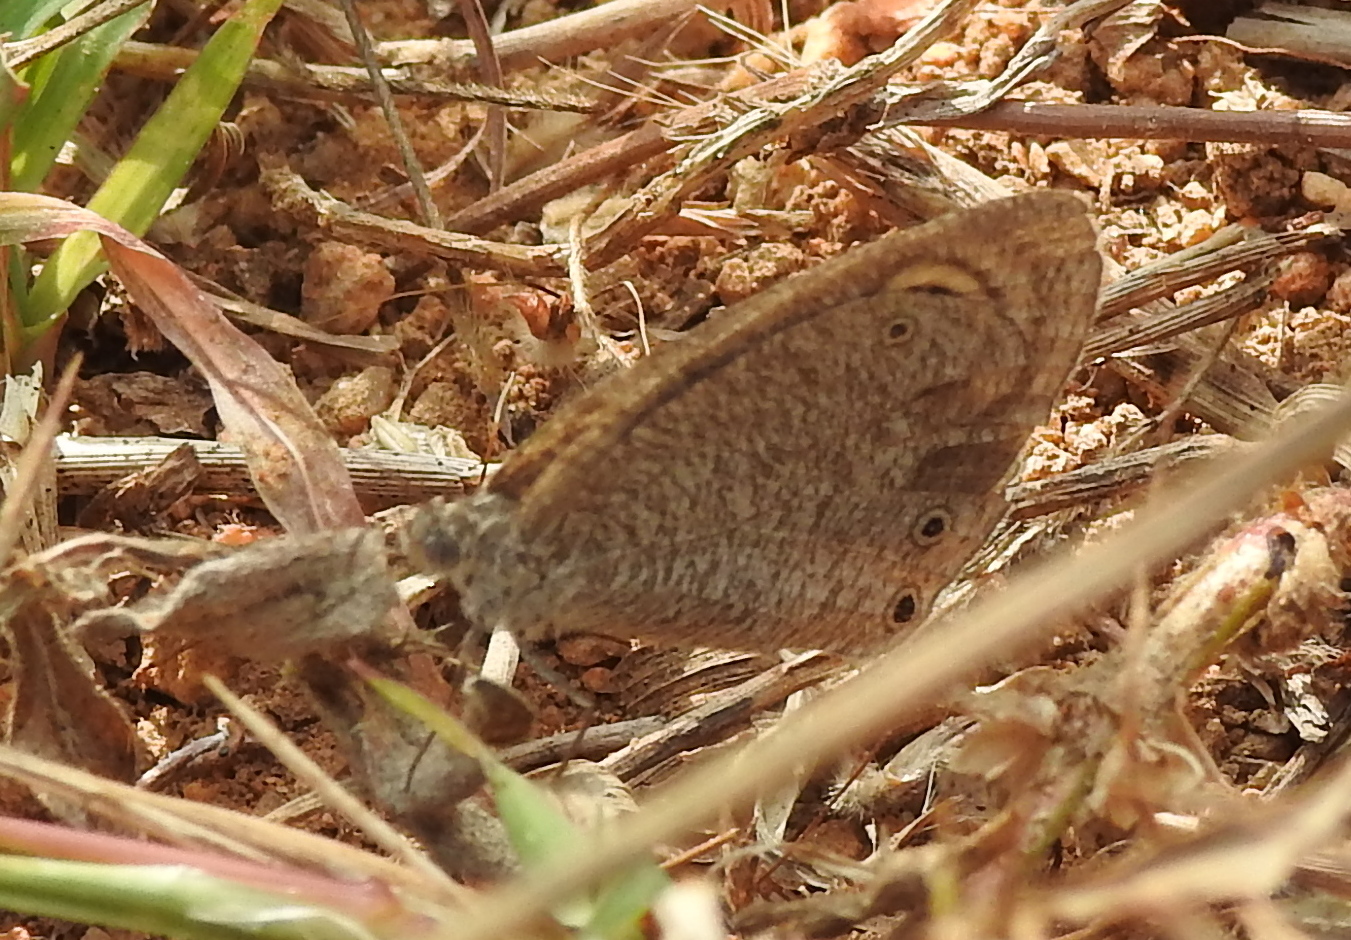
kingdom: Animalia
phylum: Arthropoda
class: Insecta
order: Lepidoptera
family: Nymphalidae
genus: Ypthima
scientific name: Ypthima asterope
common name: African ringlet
